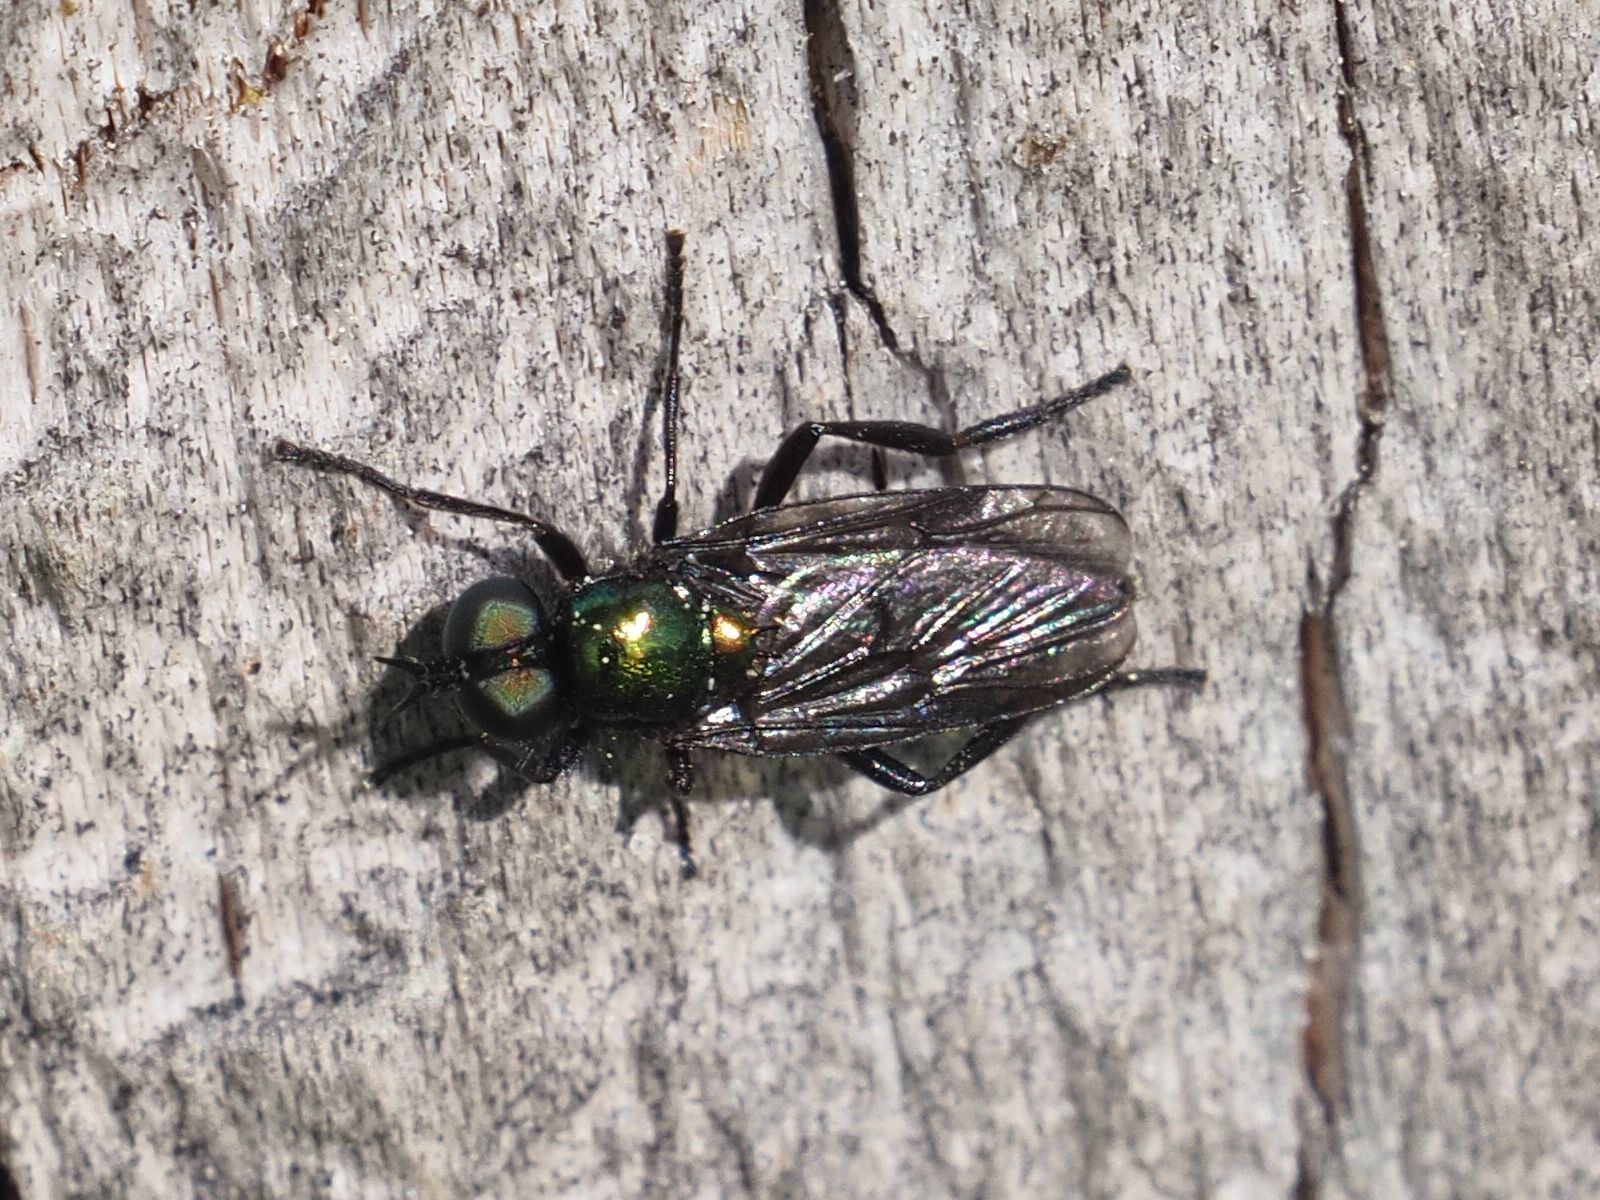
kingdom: Animalia
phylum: Arthropoda
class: Insecta
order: Diptera
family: Stratiomyidae
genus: Actina
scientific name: Actina chalybea
